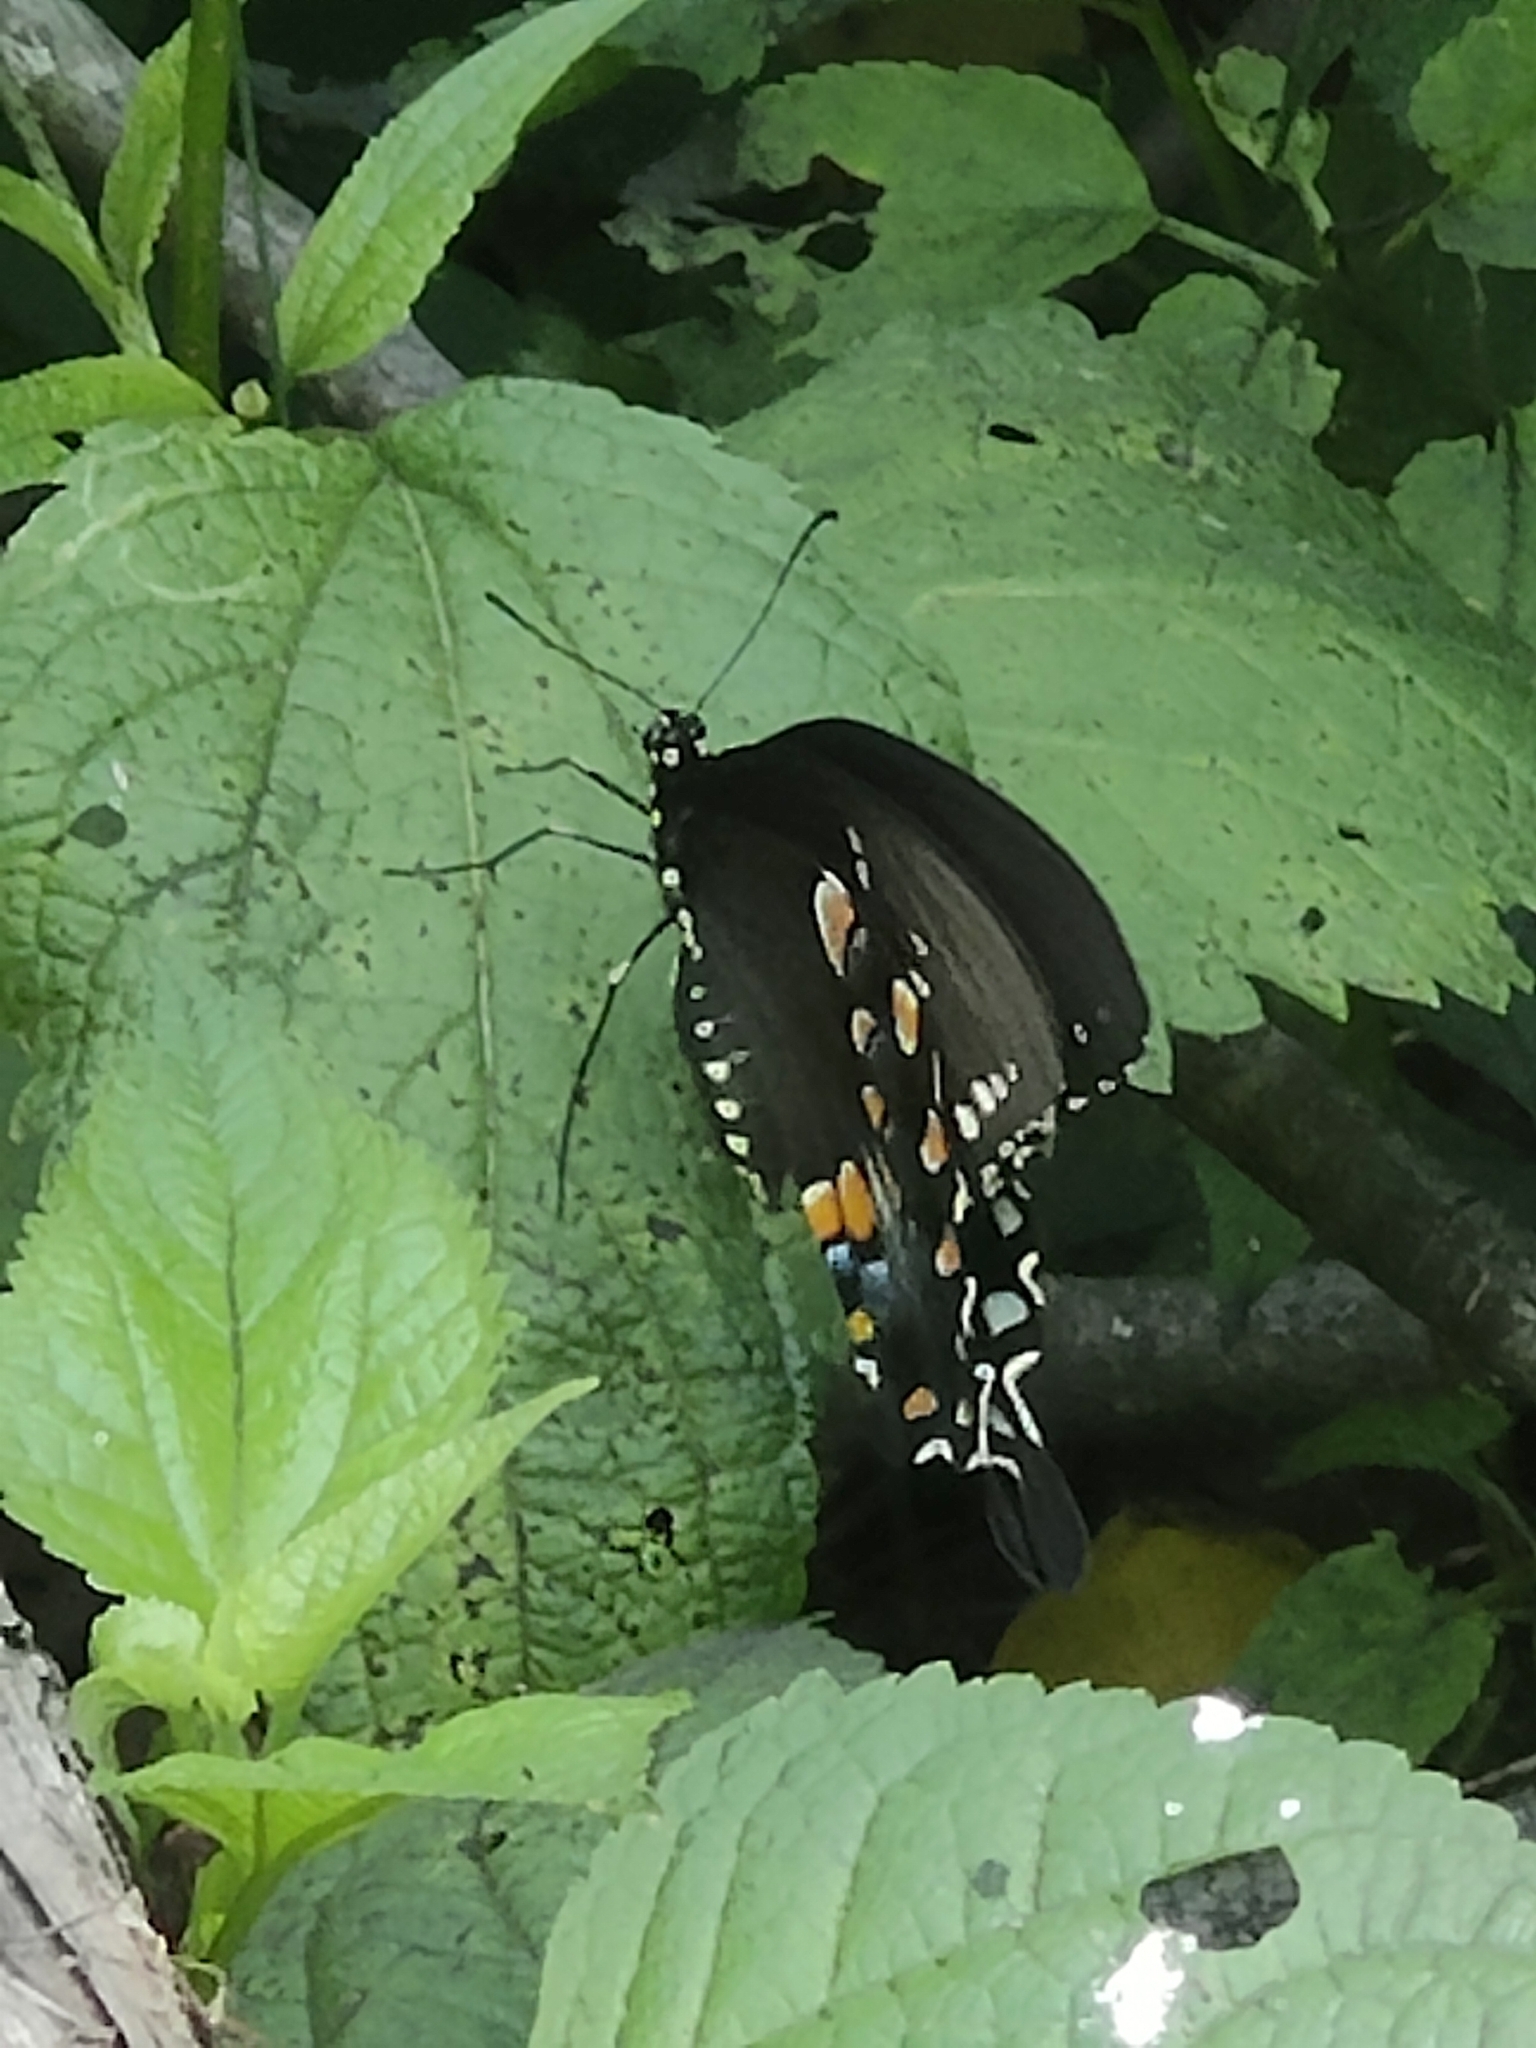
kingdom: Animalia
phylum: Arthropoda
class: Insecta
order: Lepidoptera
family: Papilionidae
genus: Papilio
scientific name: Papilio troilus
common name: Spicebush swallowtail
